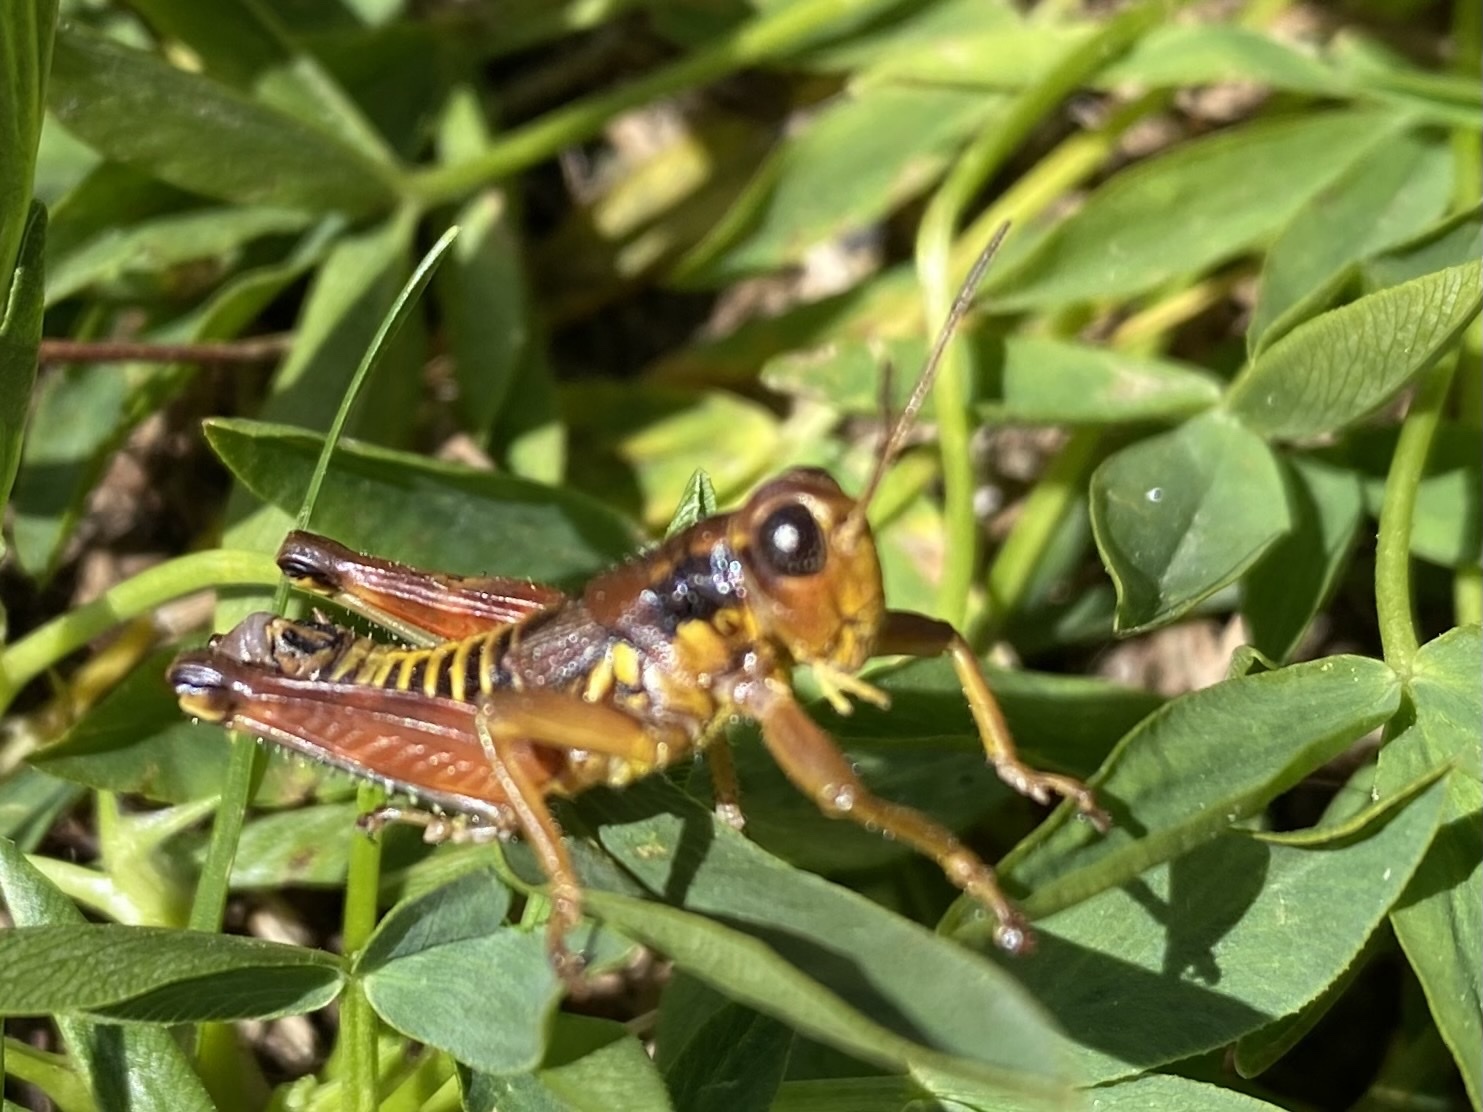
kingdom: Animalia
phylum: Arthropoda
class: Insecta
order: Orthoptera
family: Acrididae
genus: Podisma
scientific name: Podisma pedestris
